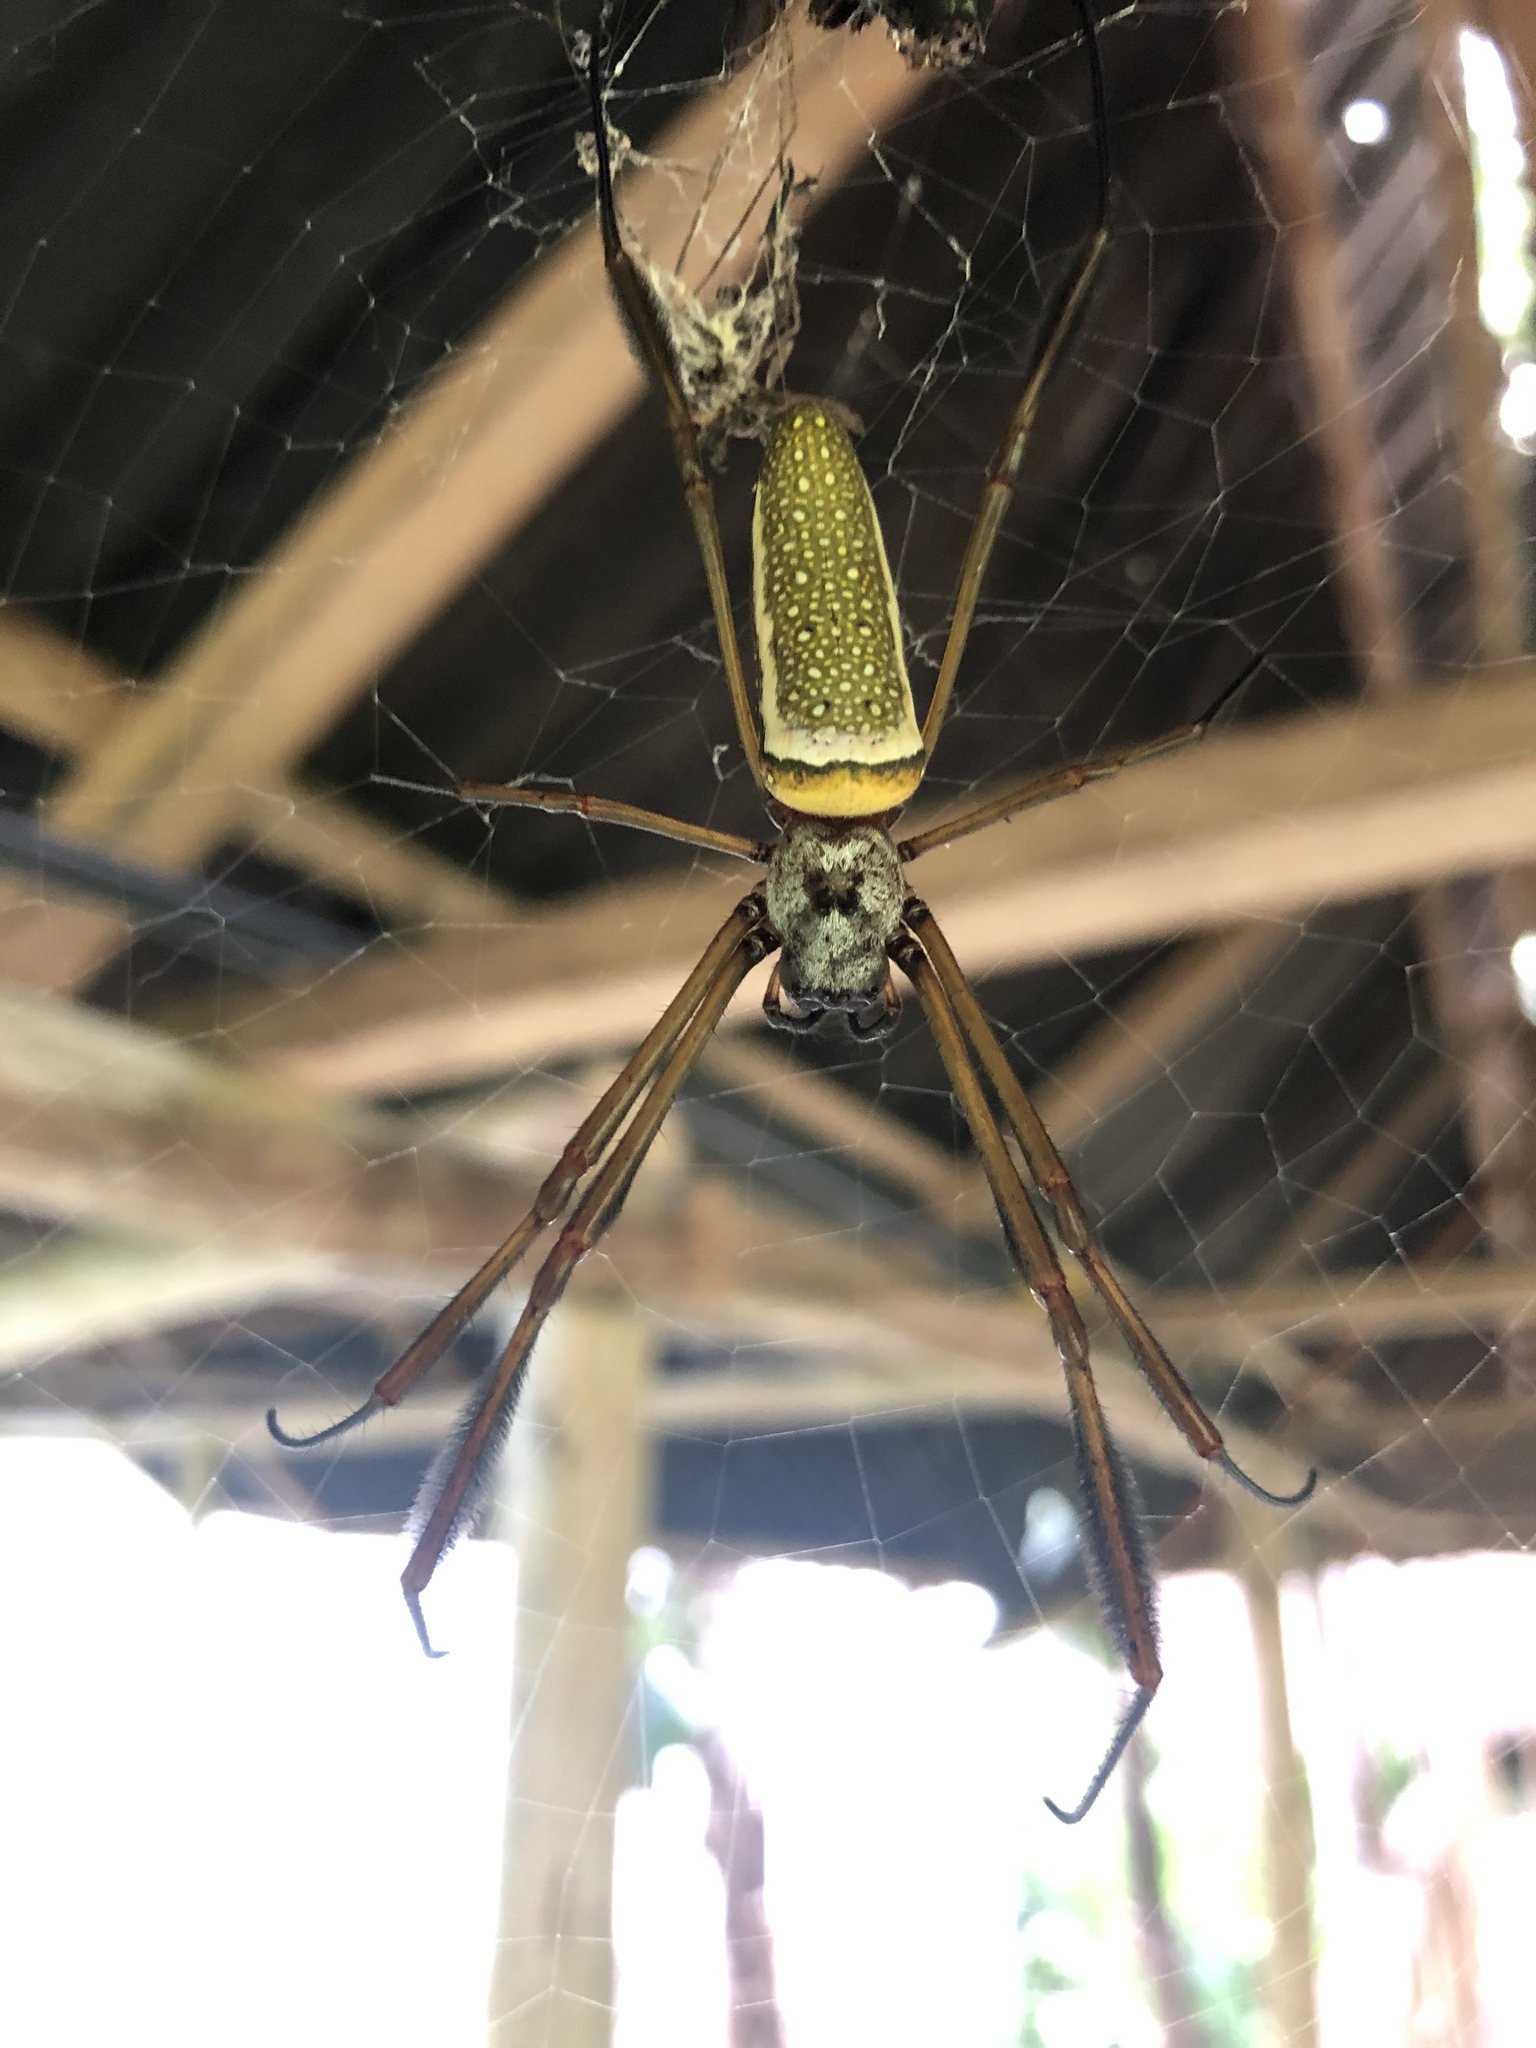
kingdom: Animalia
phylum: Arthropoda
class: Arachnida
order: Araneae
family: Araneidae
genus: Trichonephila
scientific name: Trichonephila clavipes
